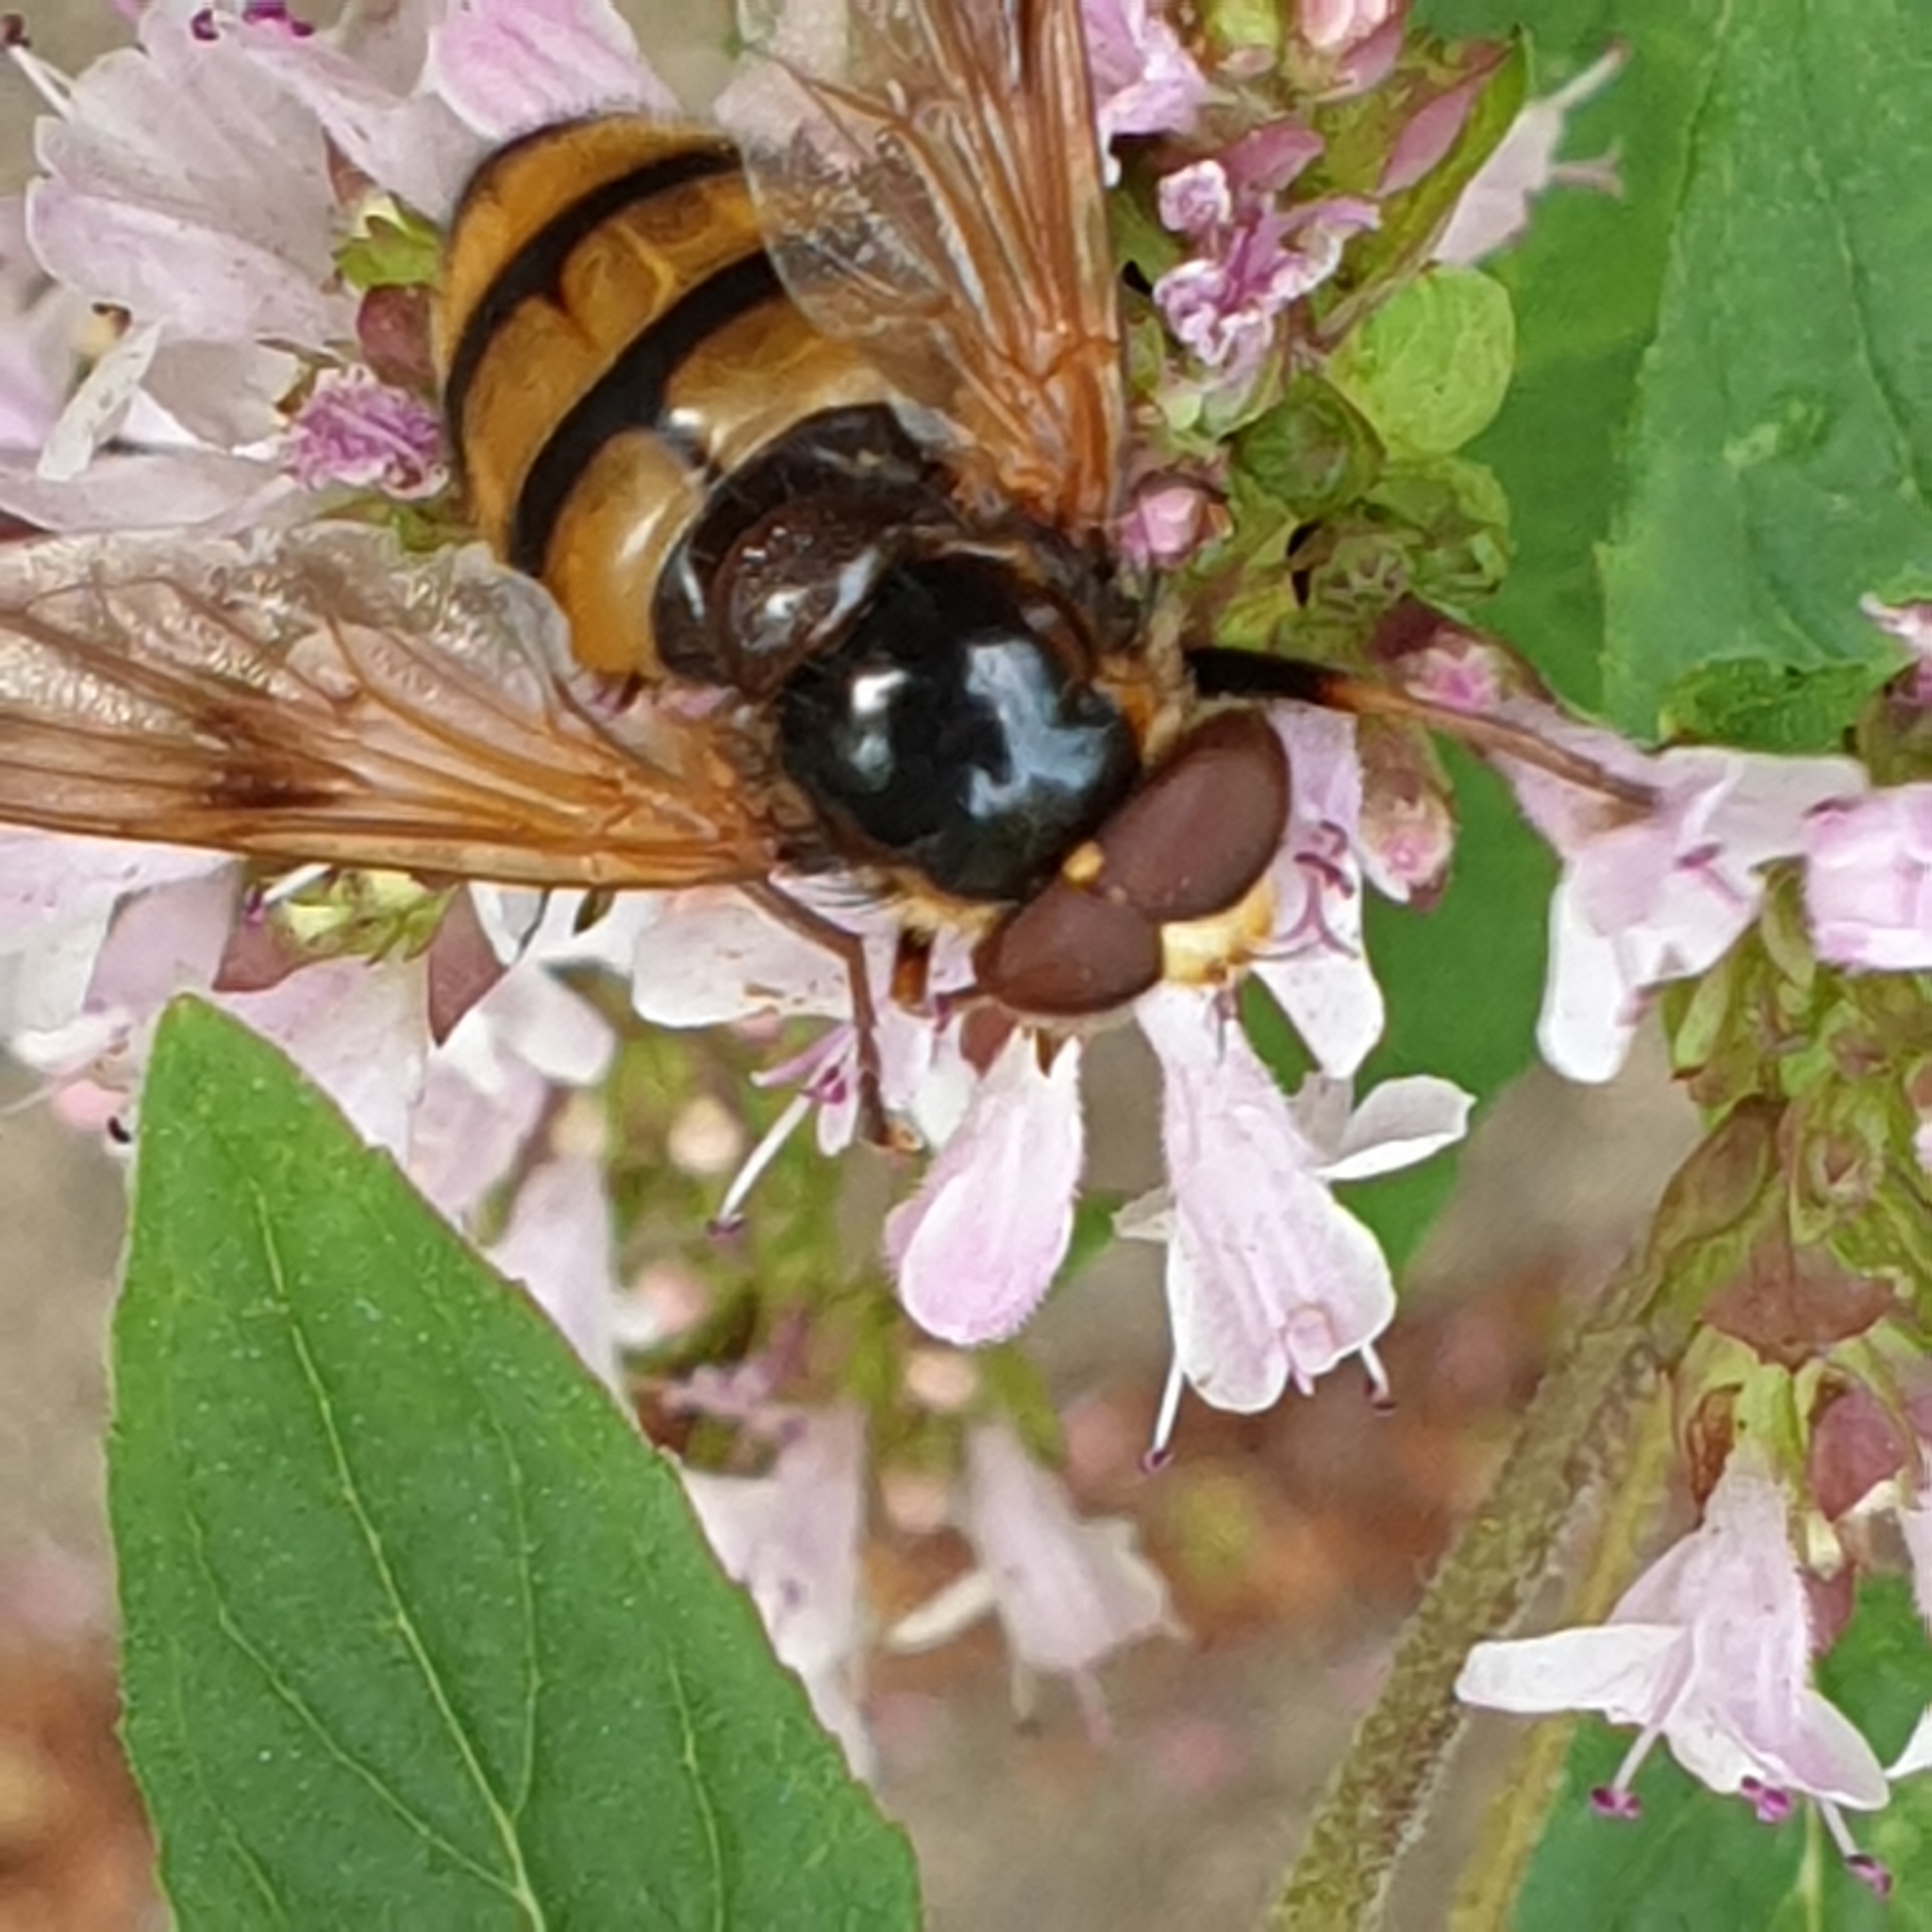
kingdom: Animalia
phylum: Arthropoda
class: Insecta
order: Diptera
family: Syrphidae
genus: Volucella
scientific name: Volucella inanis
